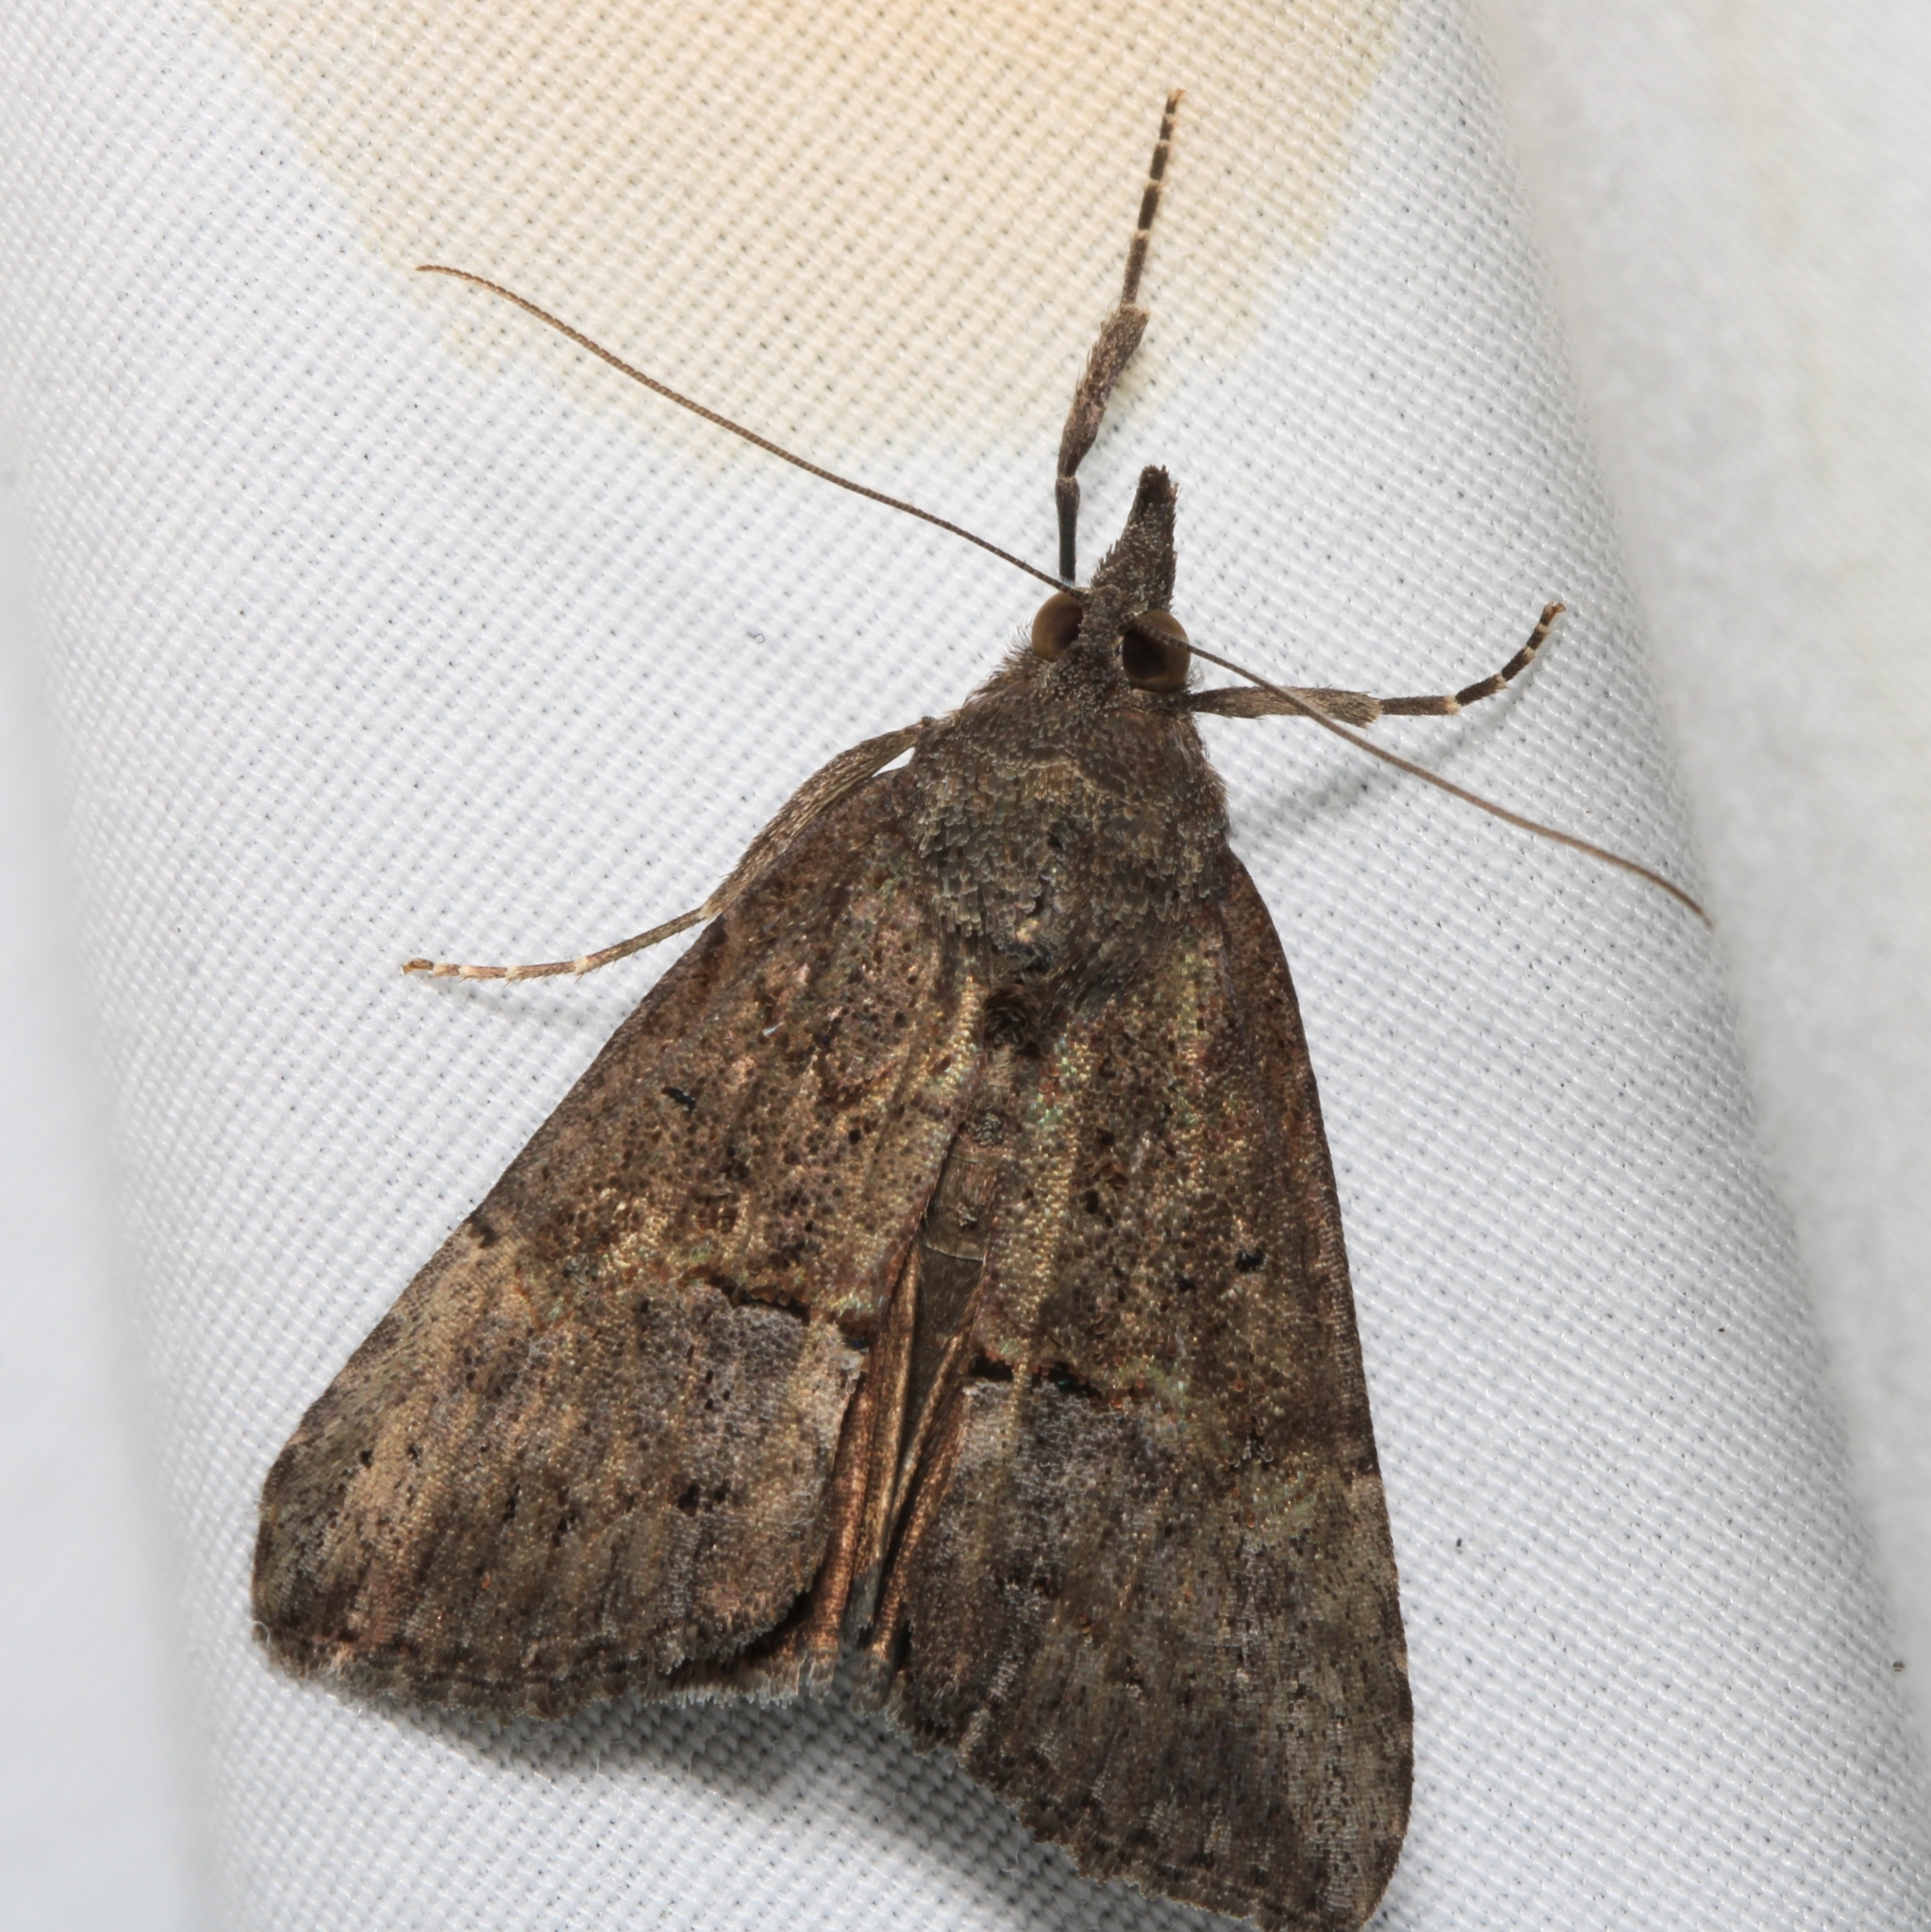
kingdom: Animalia
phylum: Arthropoda
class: Insecta
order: Lepidoptera
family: Erebidae
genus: Hypena
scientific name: Hypena scabra
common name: Green cloverworm
